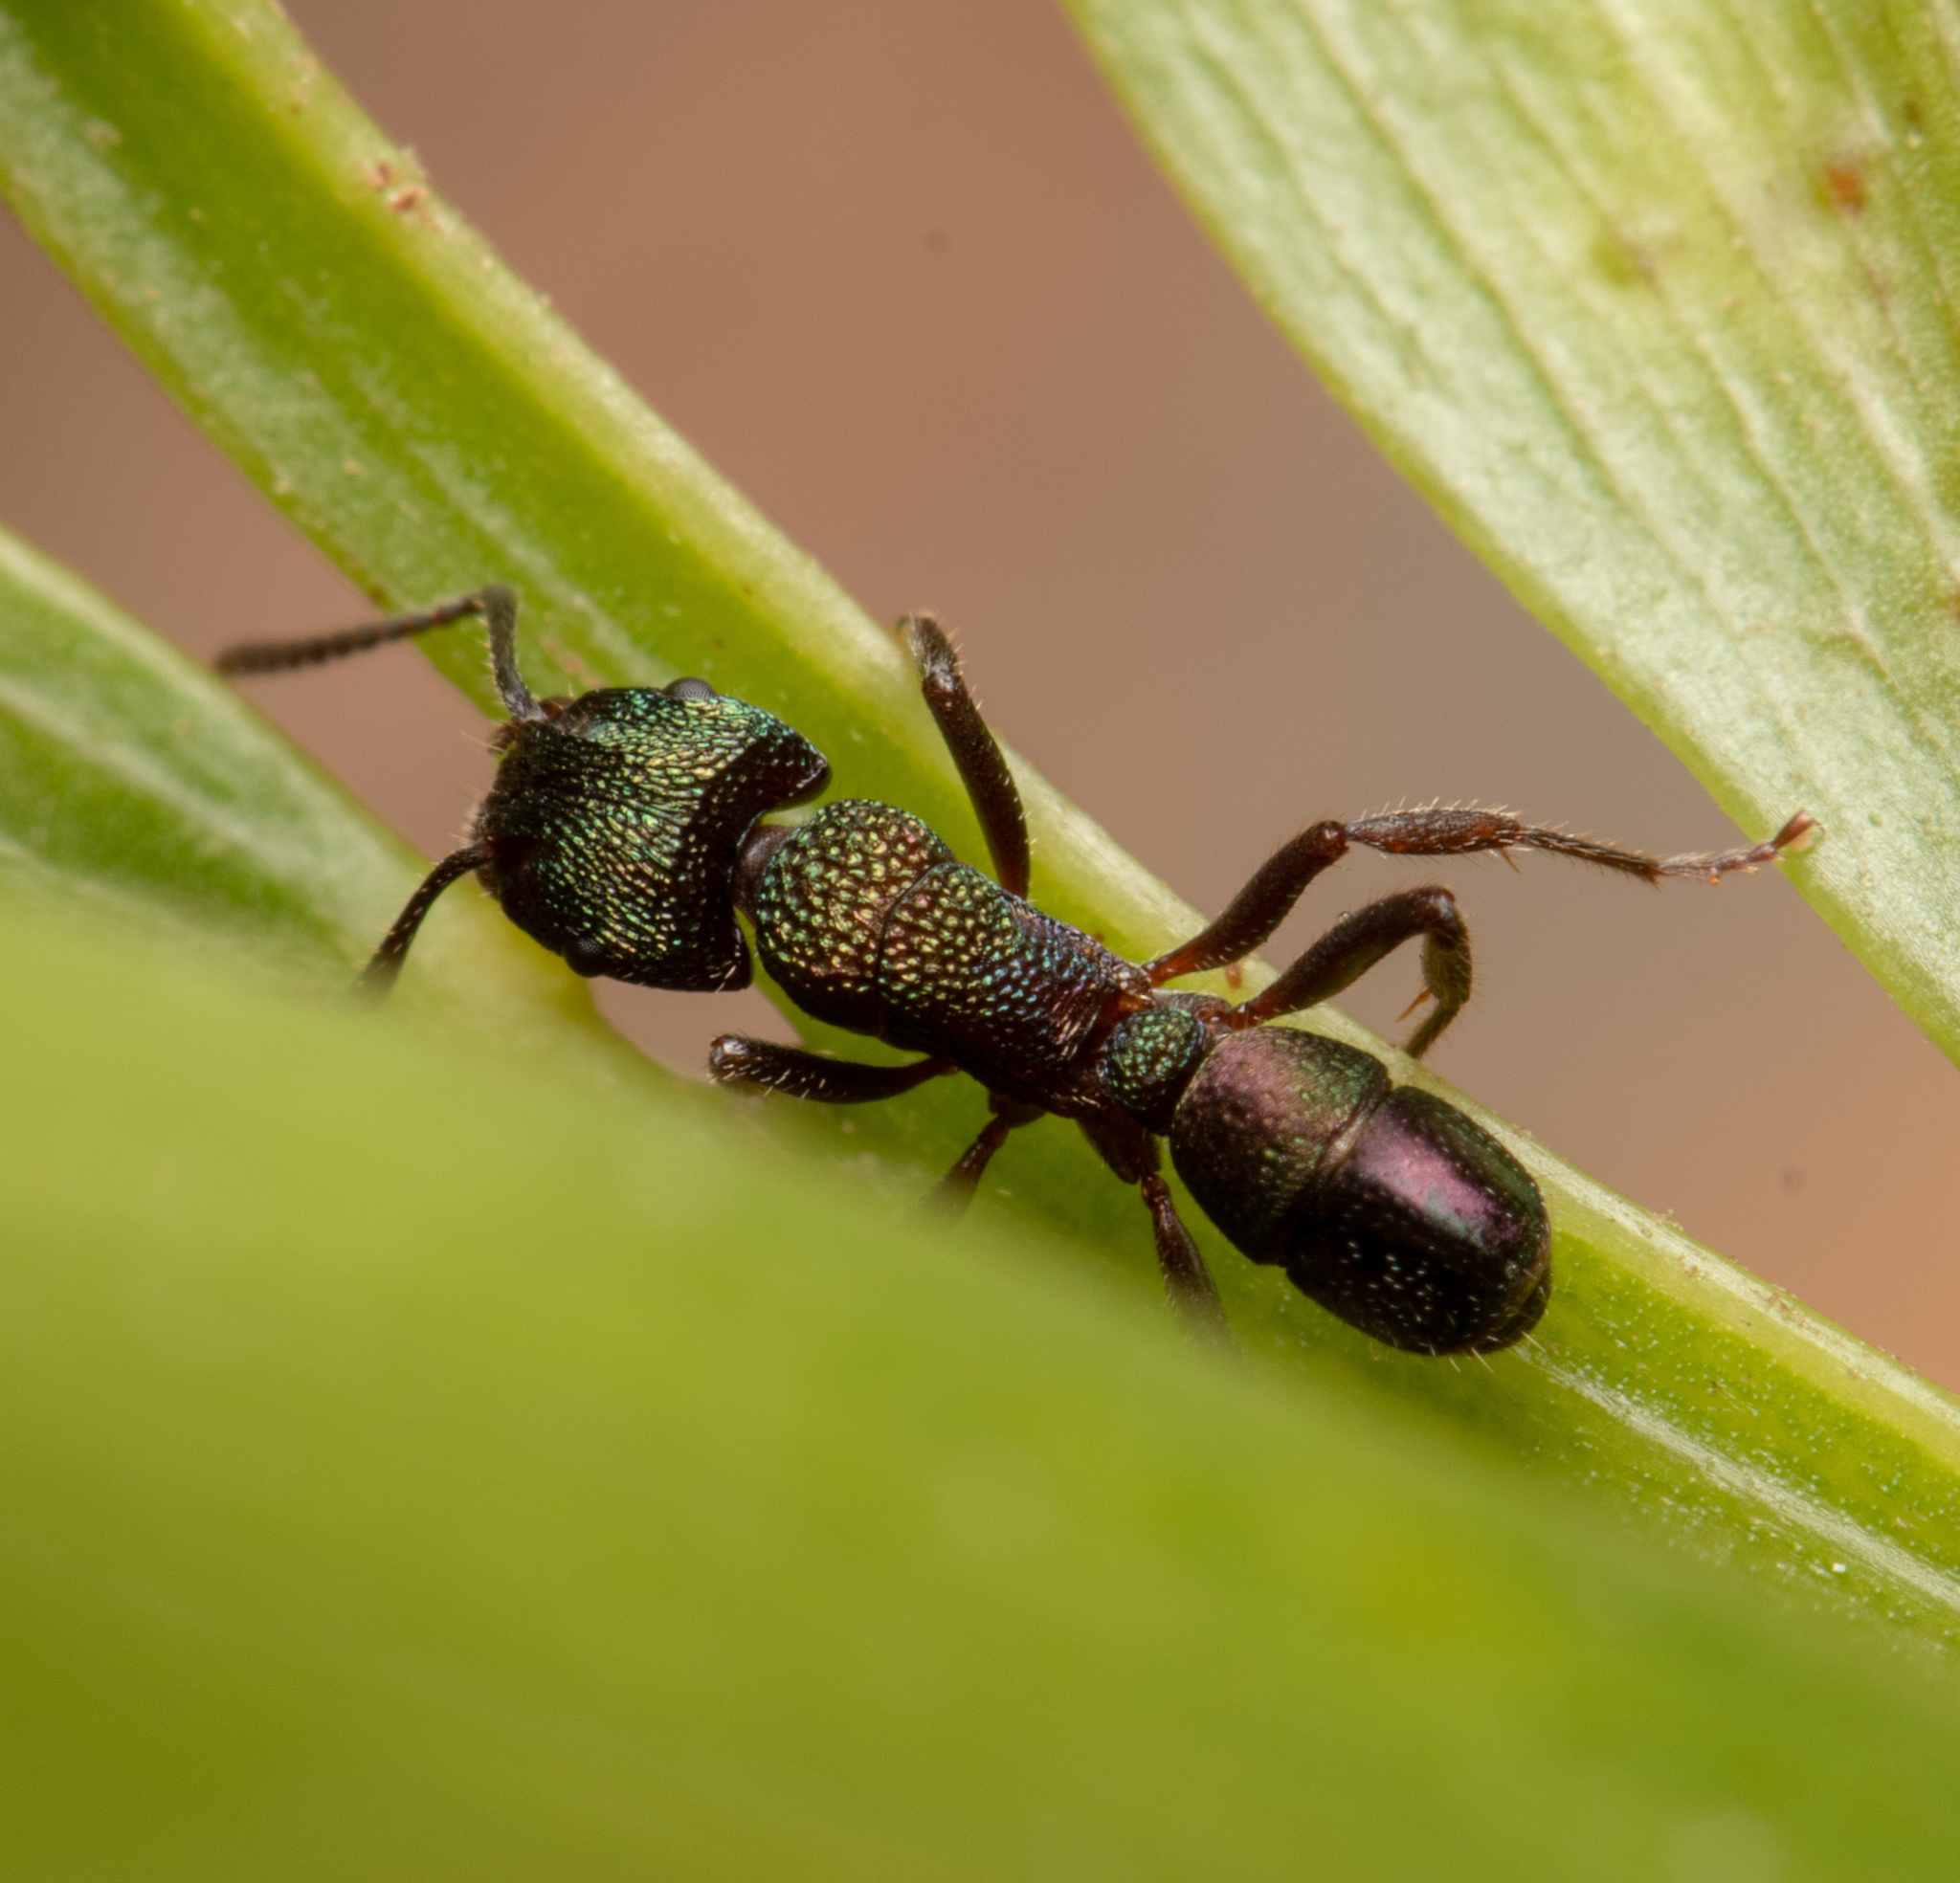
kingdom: Animalia
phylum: Arthropoda
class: Insecta
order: Hymenoptera
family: Formicidae
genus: Rhytidoponera
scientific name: Rhytidoponera metallica
